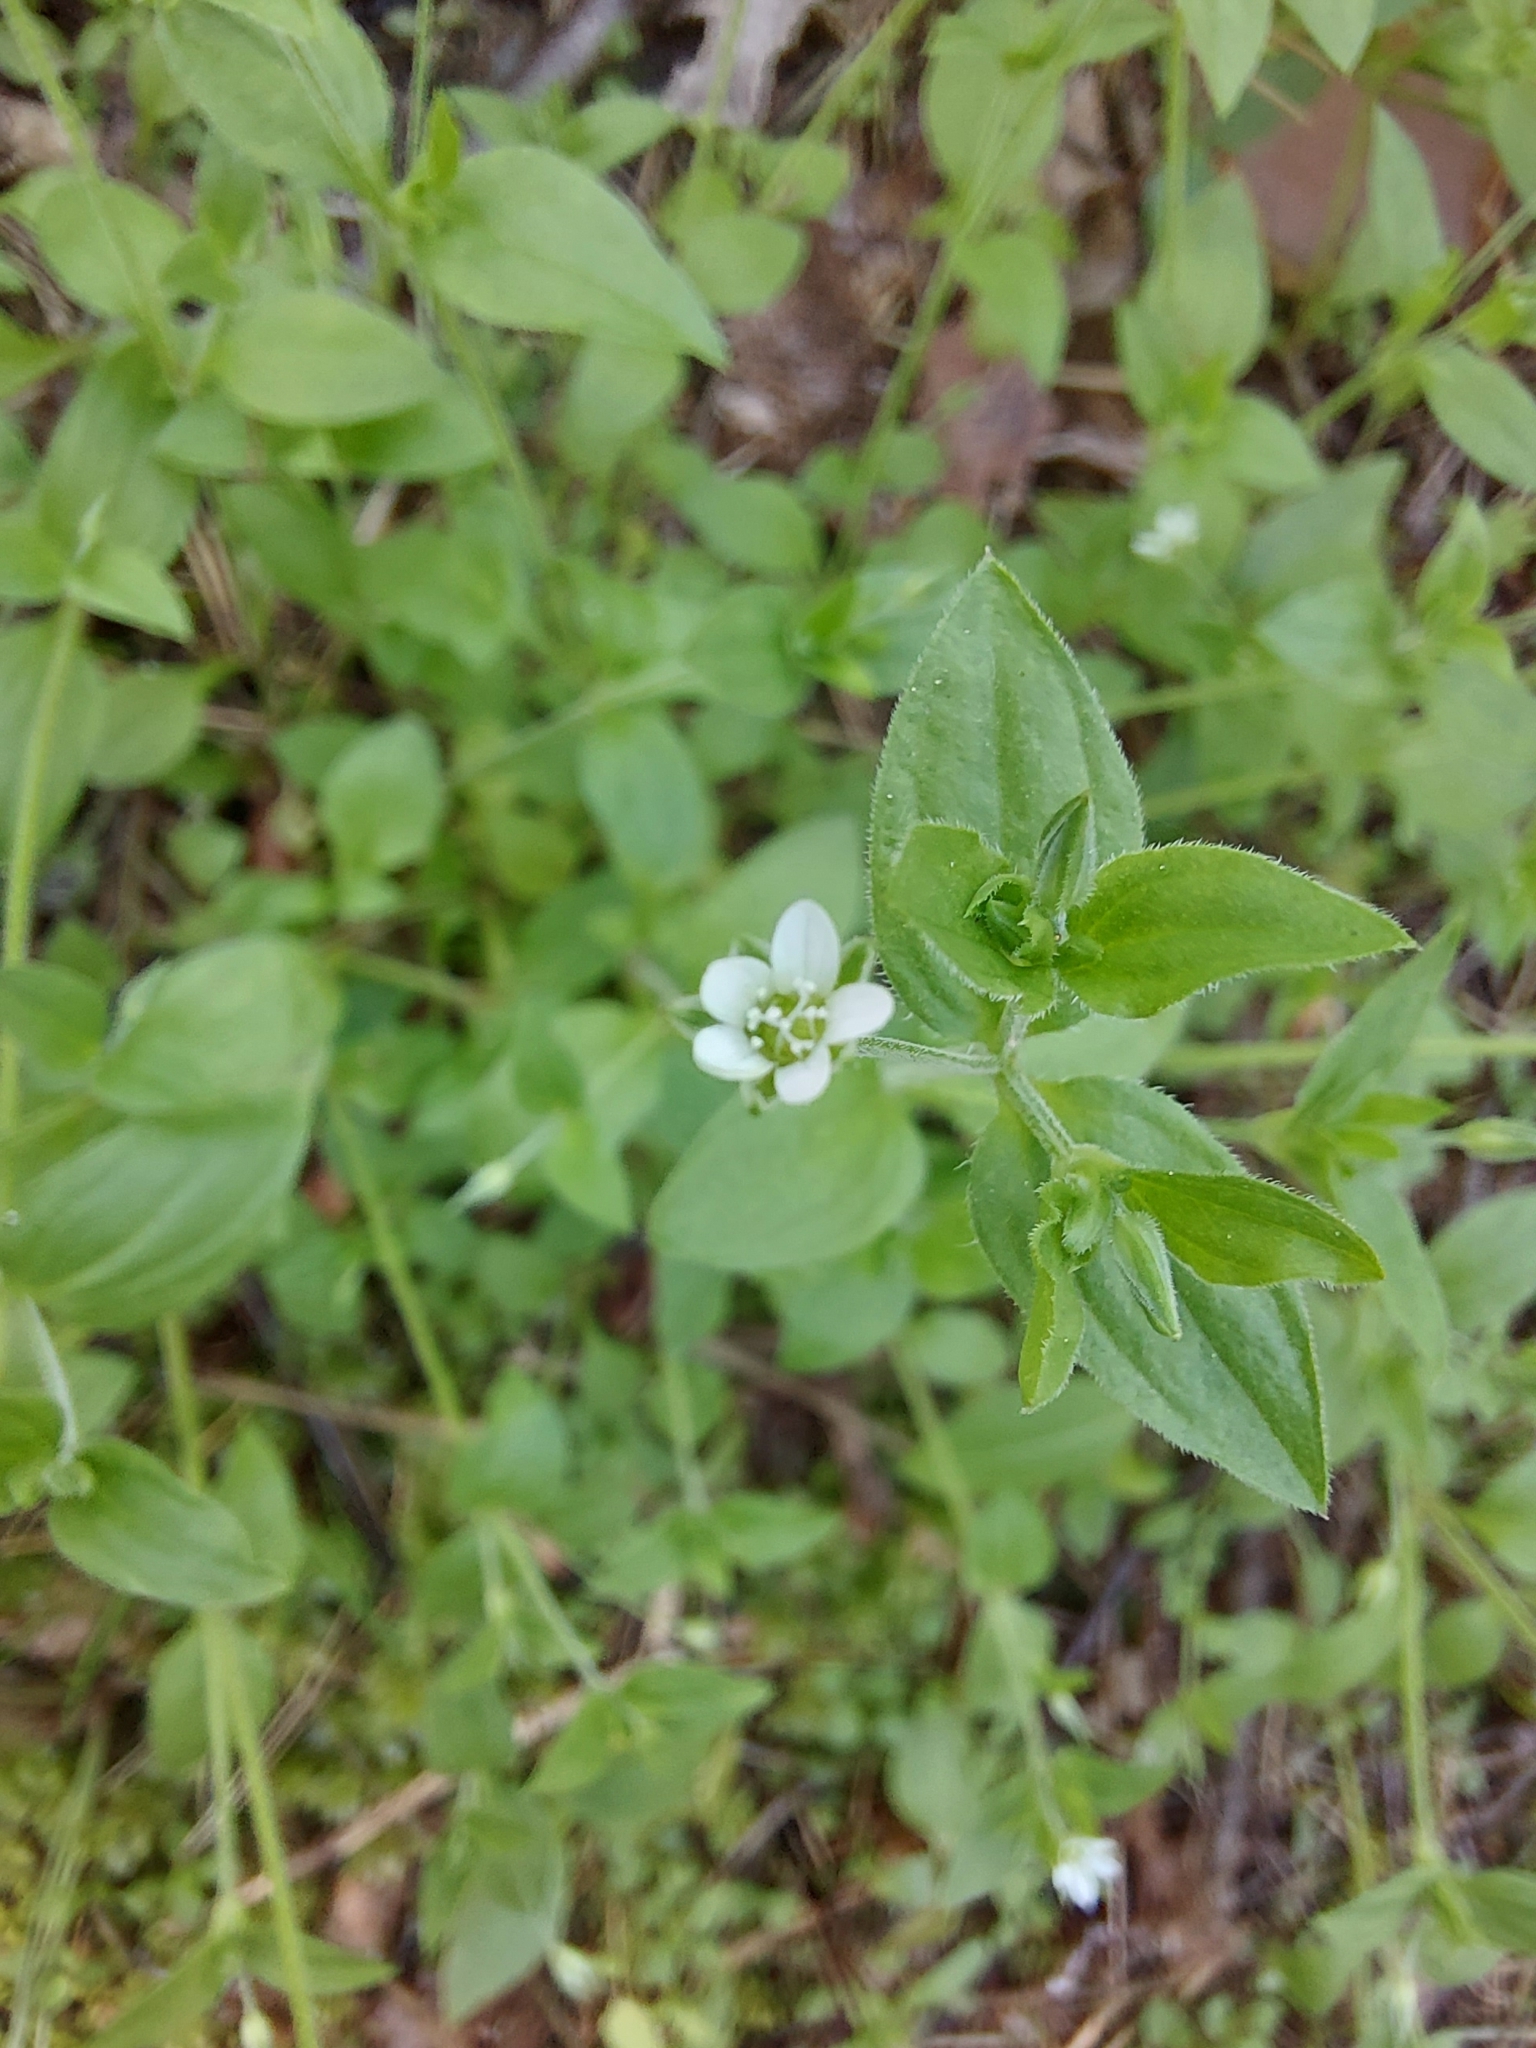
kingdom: Plantae
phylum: Tracheophyta
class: Magnoliopsida
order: Caryophyllales
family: Caryophyllaceae
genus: Moehringia
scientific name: Moehringia trinervia
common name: Three-nerved sandwort
